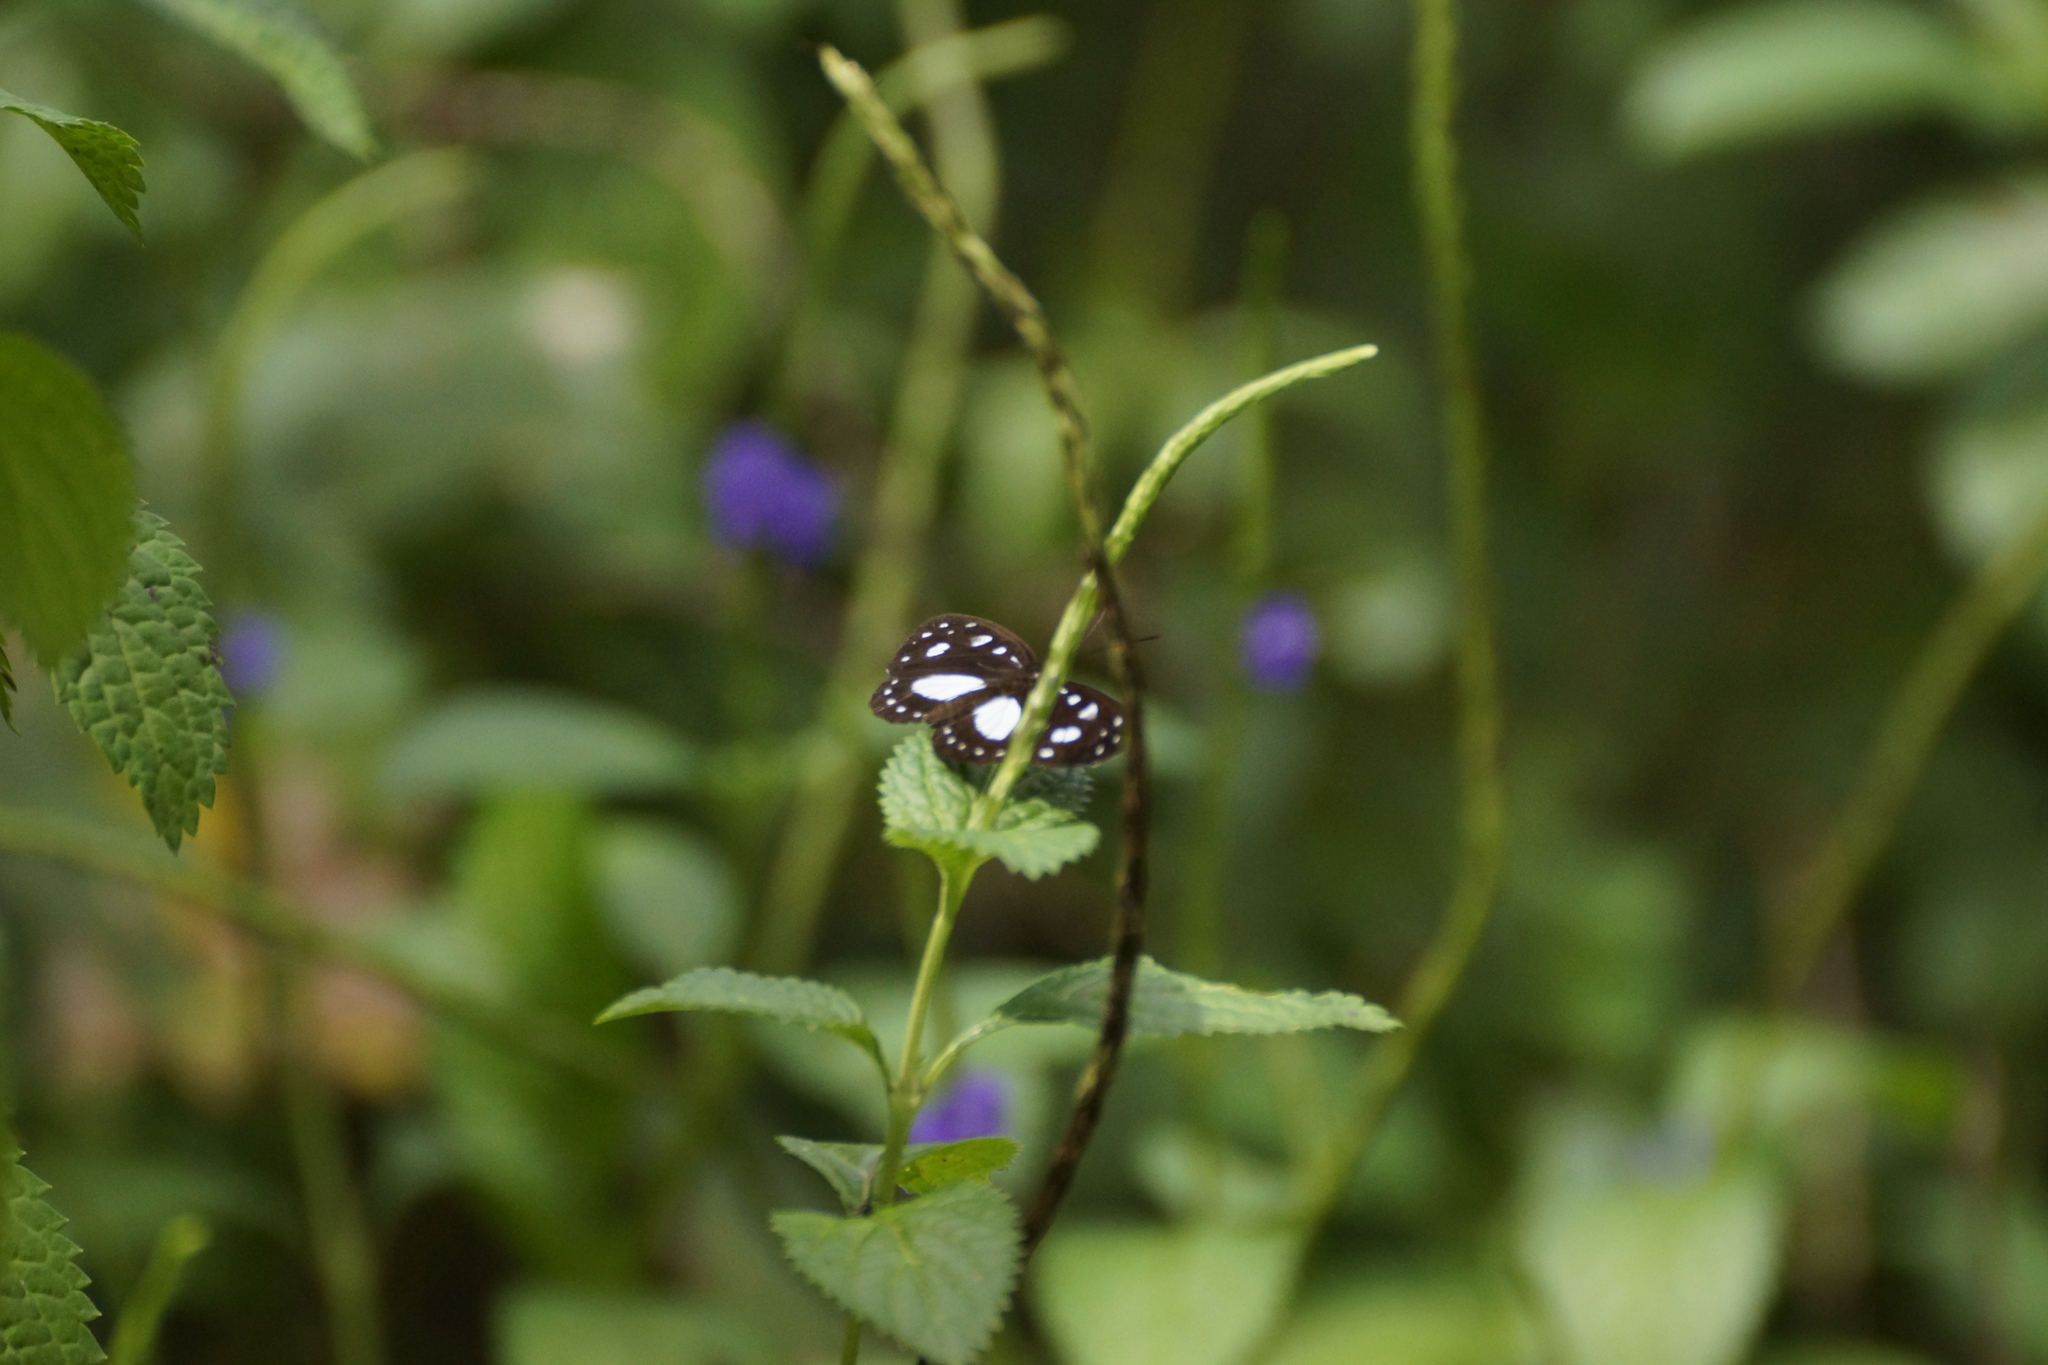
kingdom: Animalia
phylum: Arthropoda
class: Insecta
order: Lepidoptera
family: Nymphalidae
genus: Phaedyma
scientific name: Phaedyma shepherdi
